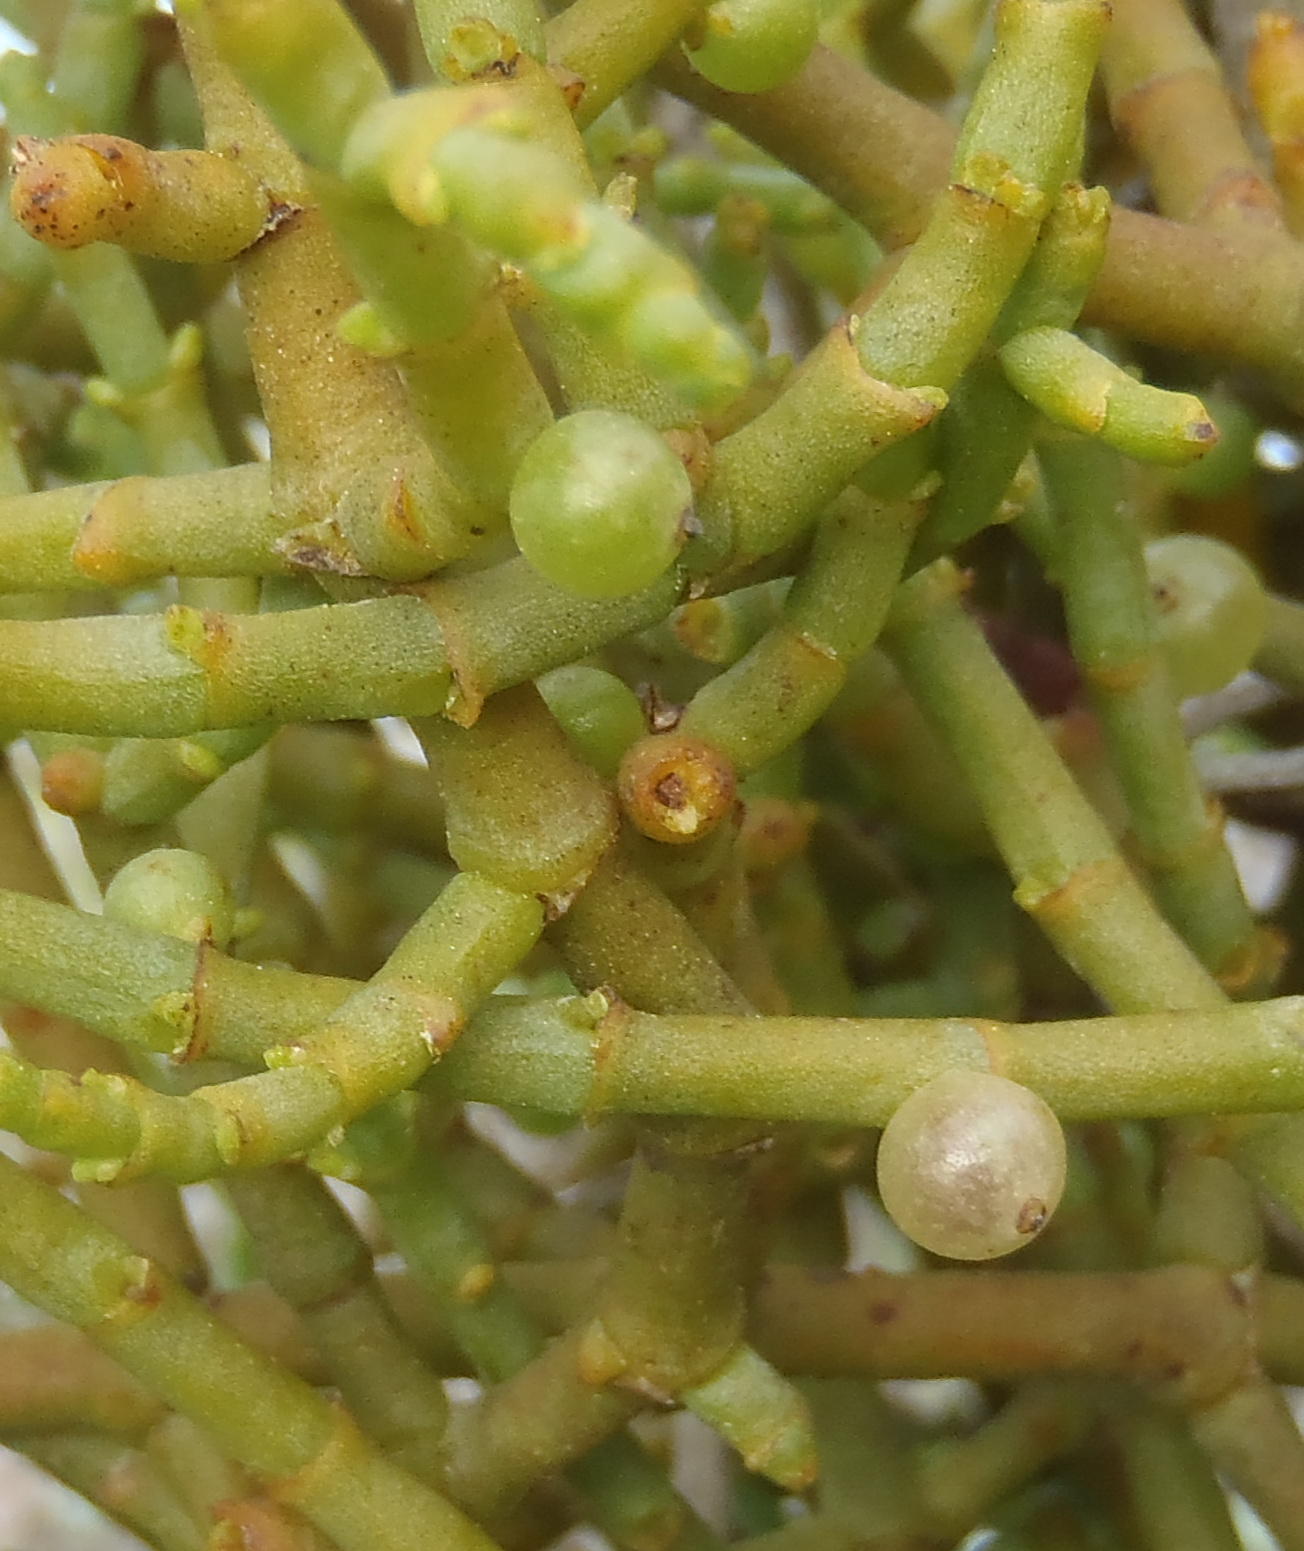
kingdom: Plantae
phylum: Tracheophyta
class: Magnoliopsida
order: Santalales
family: Viscaceae
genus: Viscum
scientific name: Viscum capense
